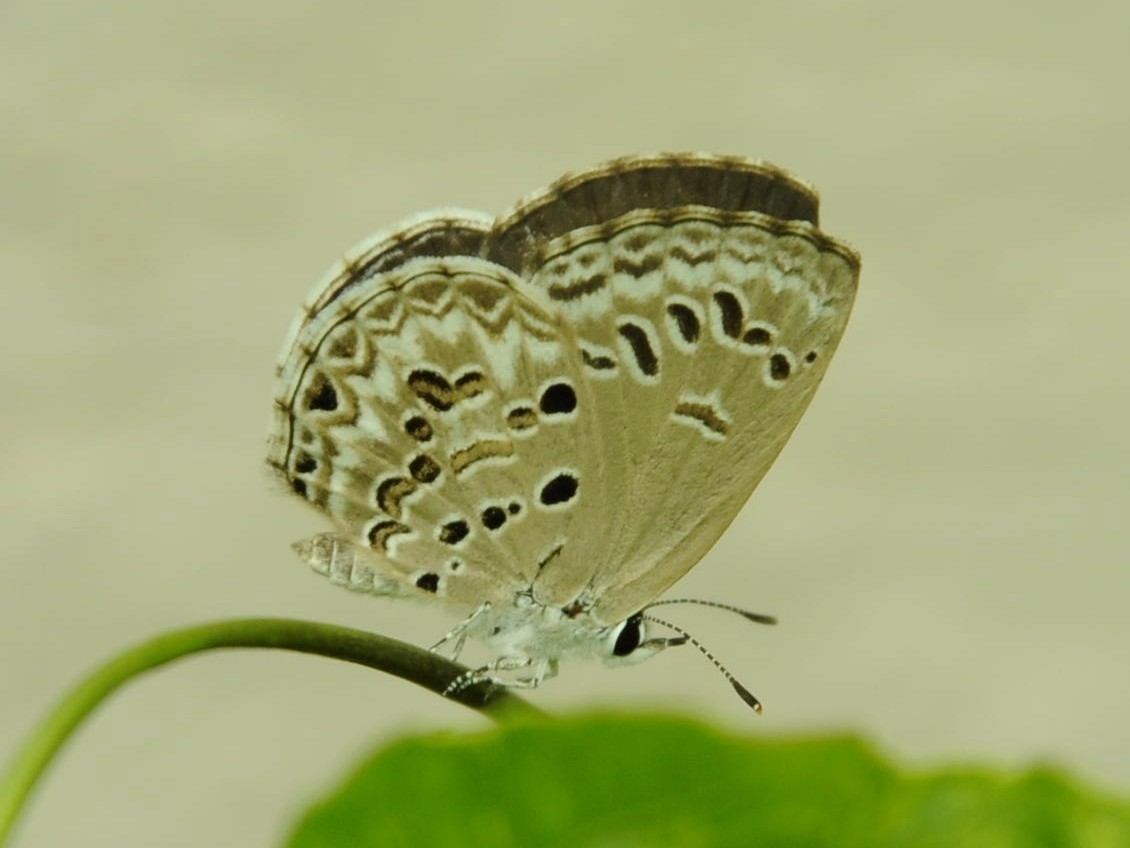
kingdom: Animalia
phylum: Arthropoda
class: Insecta
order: Lepidoptera
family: Lycaenidae
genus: Chilades
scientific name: Chilades laius
